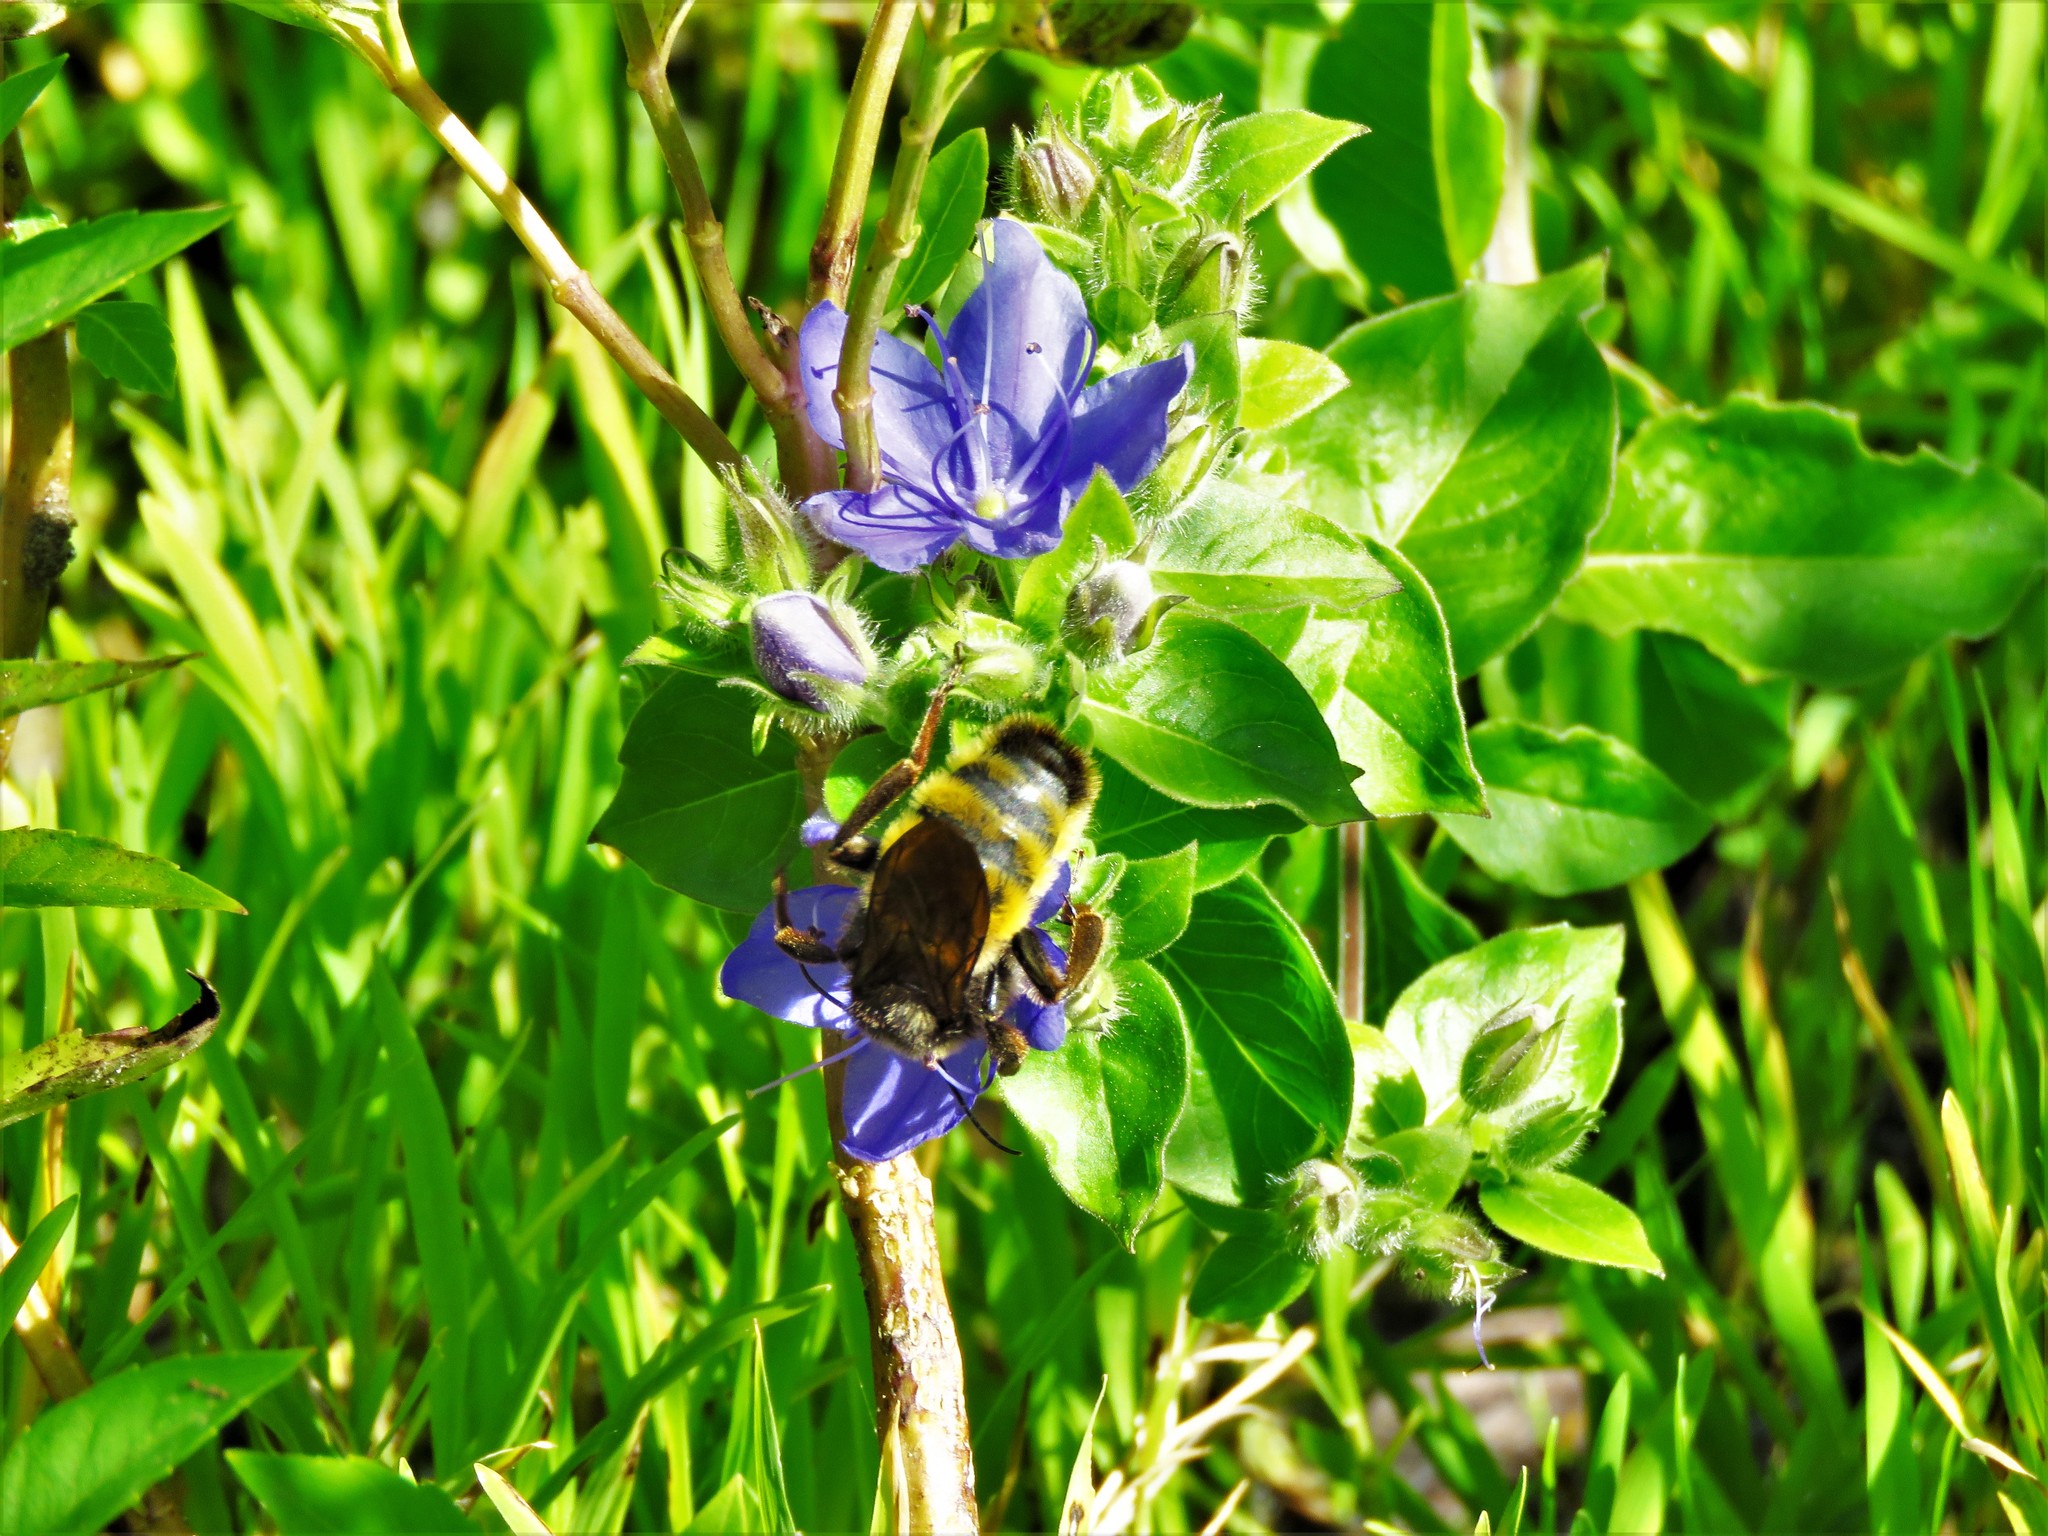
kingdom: Animalia
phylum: Arthropoda
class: Insecta
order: Hymenoptera
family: Apidae
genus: Bombus
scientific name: Bombus pensylvanicus
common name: Bumble bee
